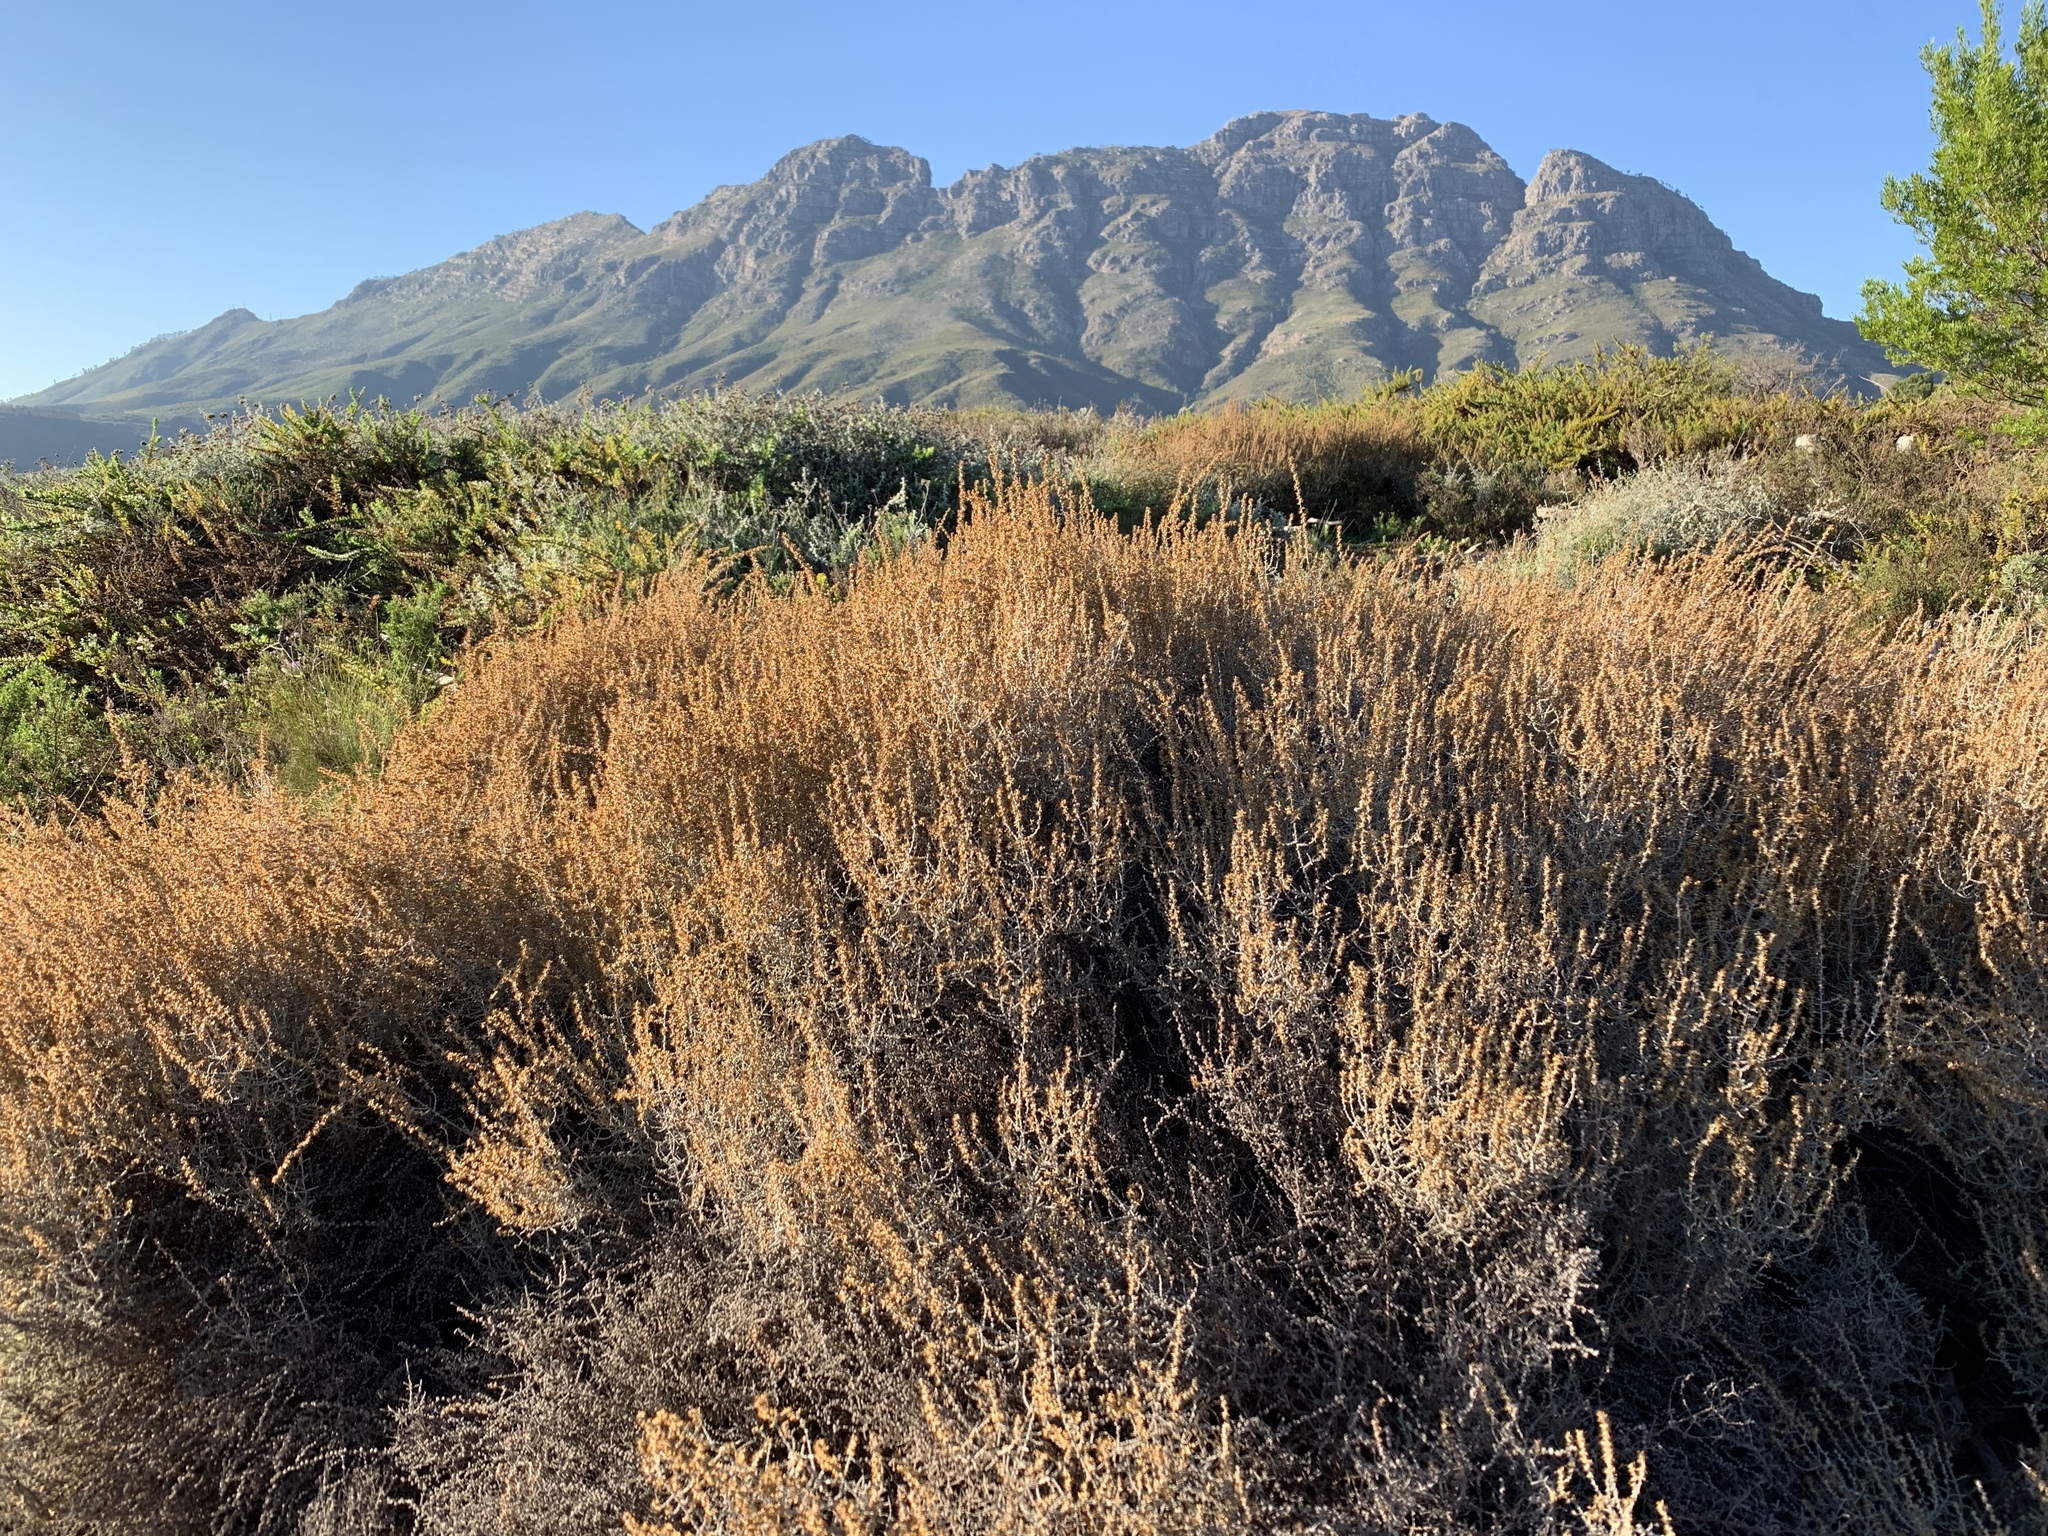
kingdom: Plantae
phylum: Tracheophyta
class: Magnoliopsida
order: Asterales
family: Asteraceae
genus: Seriphium
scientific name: Seriphium plumosum
